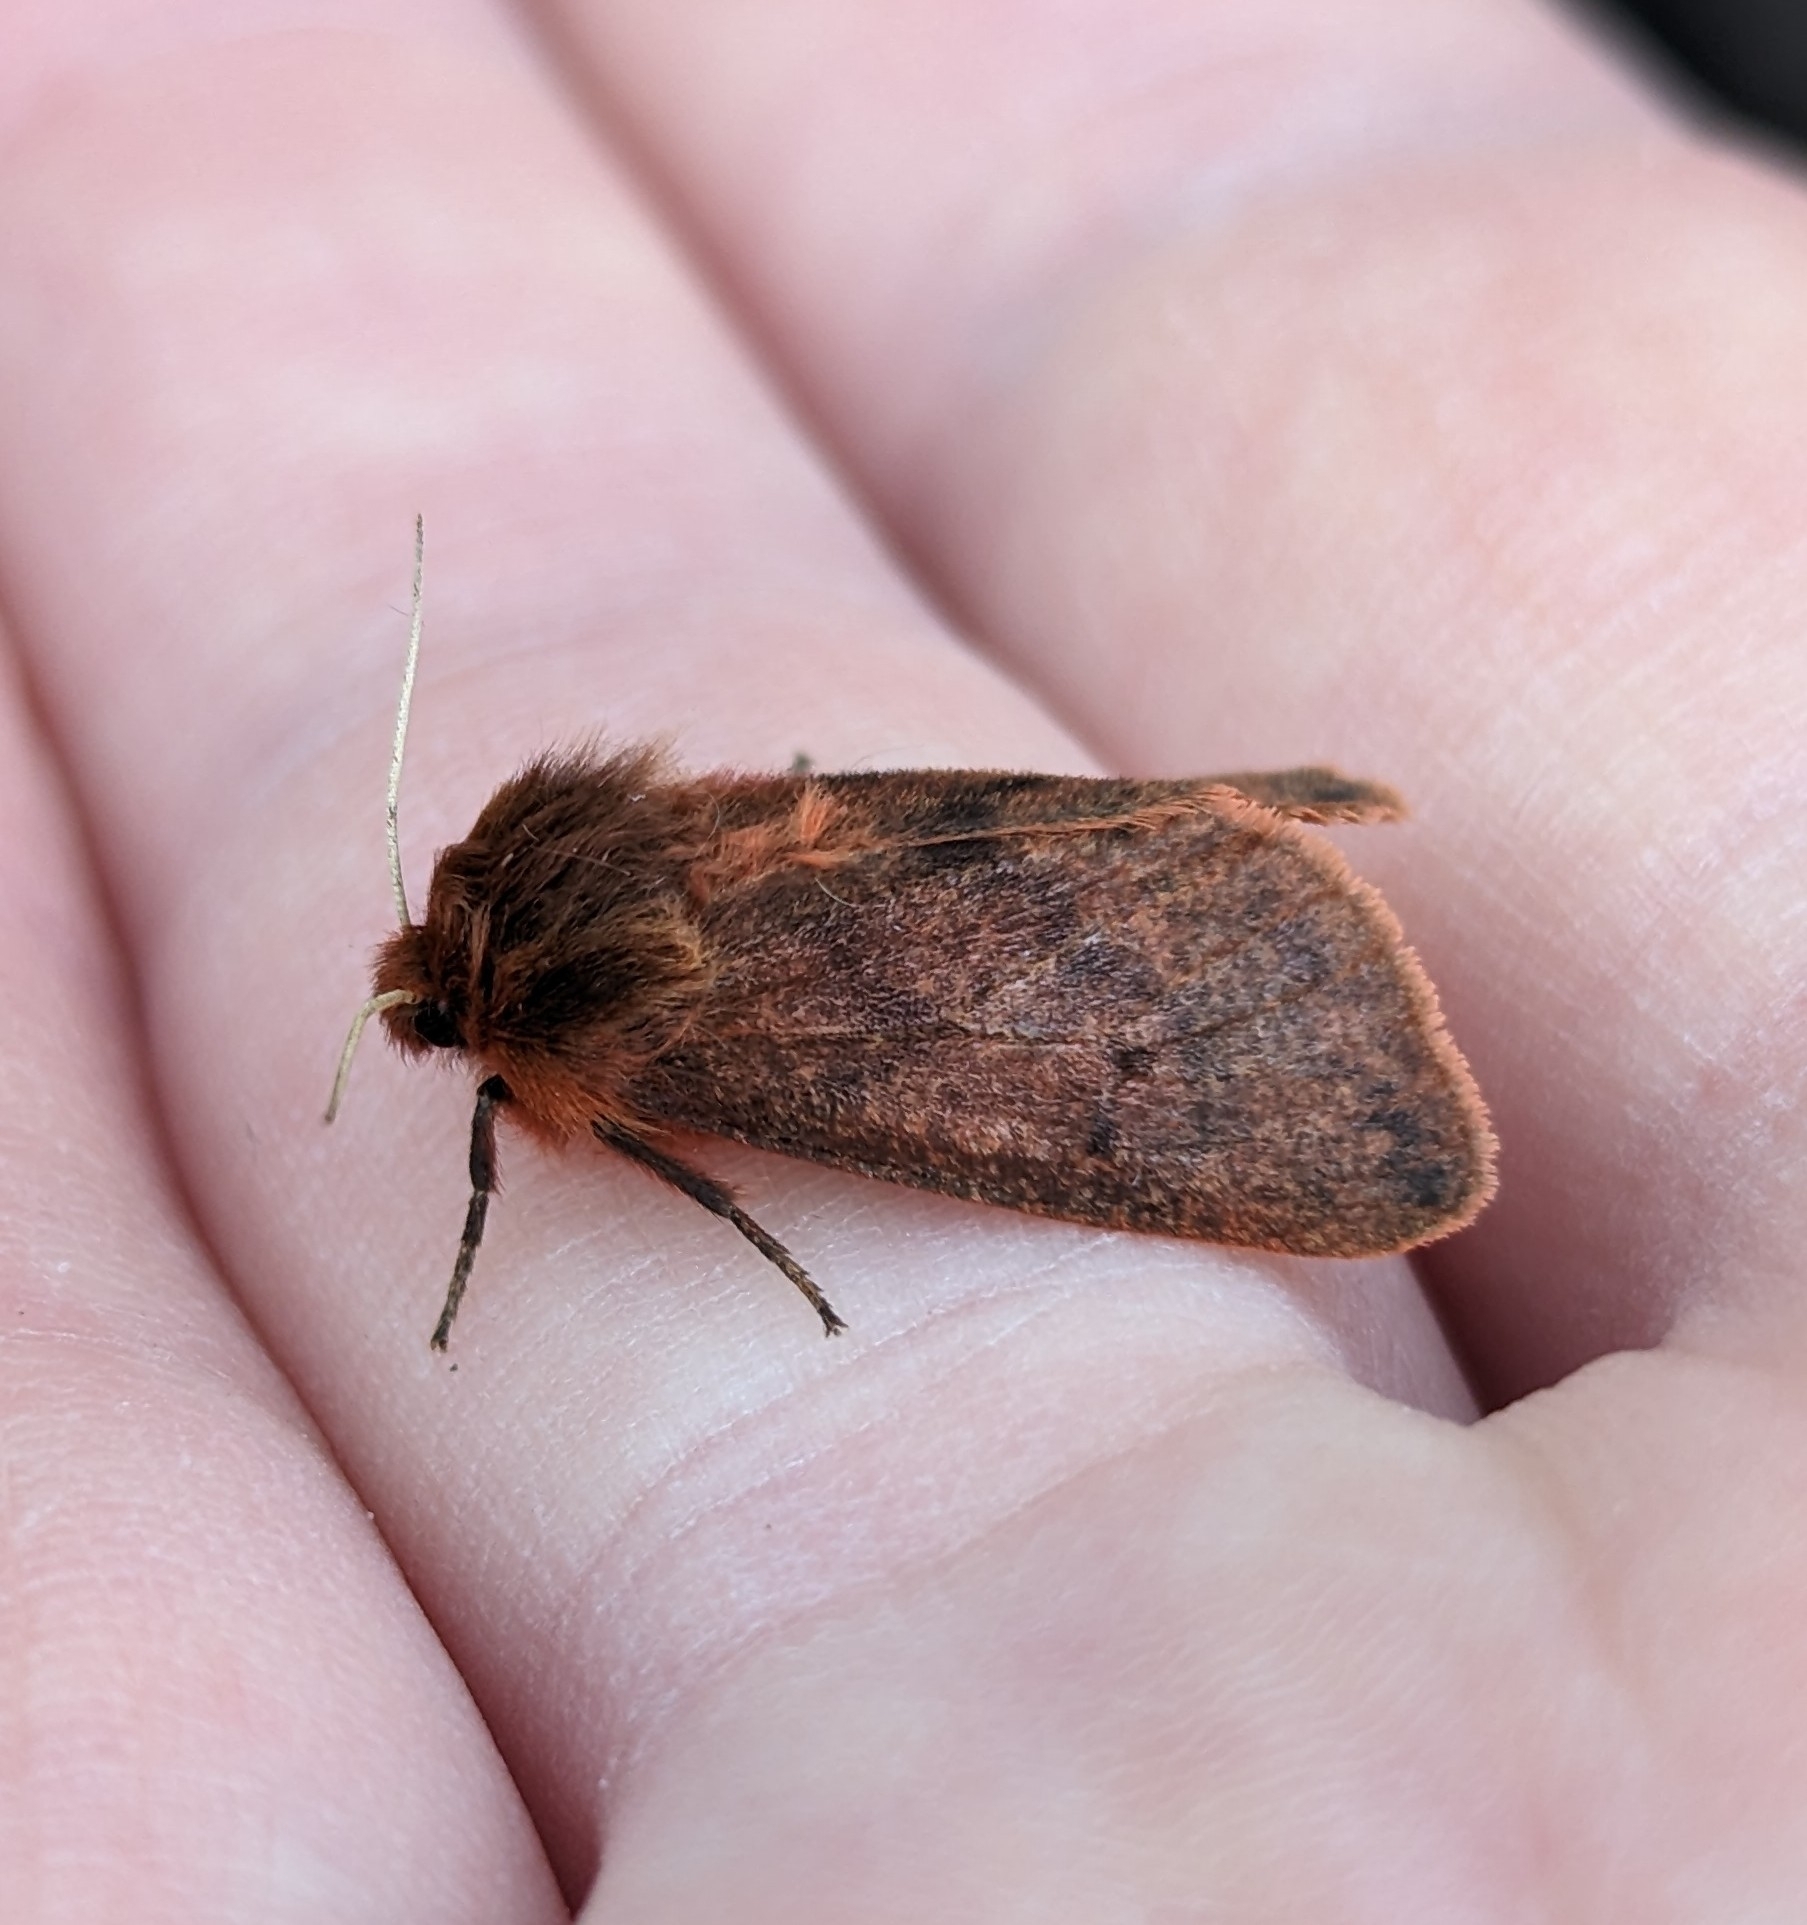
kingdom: Animalia
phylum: Arthropoda
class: Insecta
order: Lepidoptera
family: Erebidae
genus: Phragmatobia
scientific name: Phragmatobia assimilans
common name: Large ruby tiger moth
